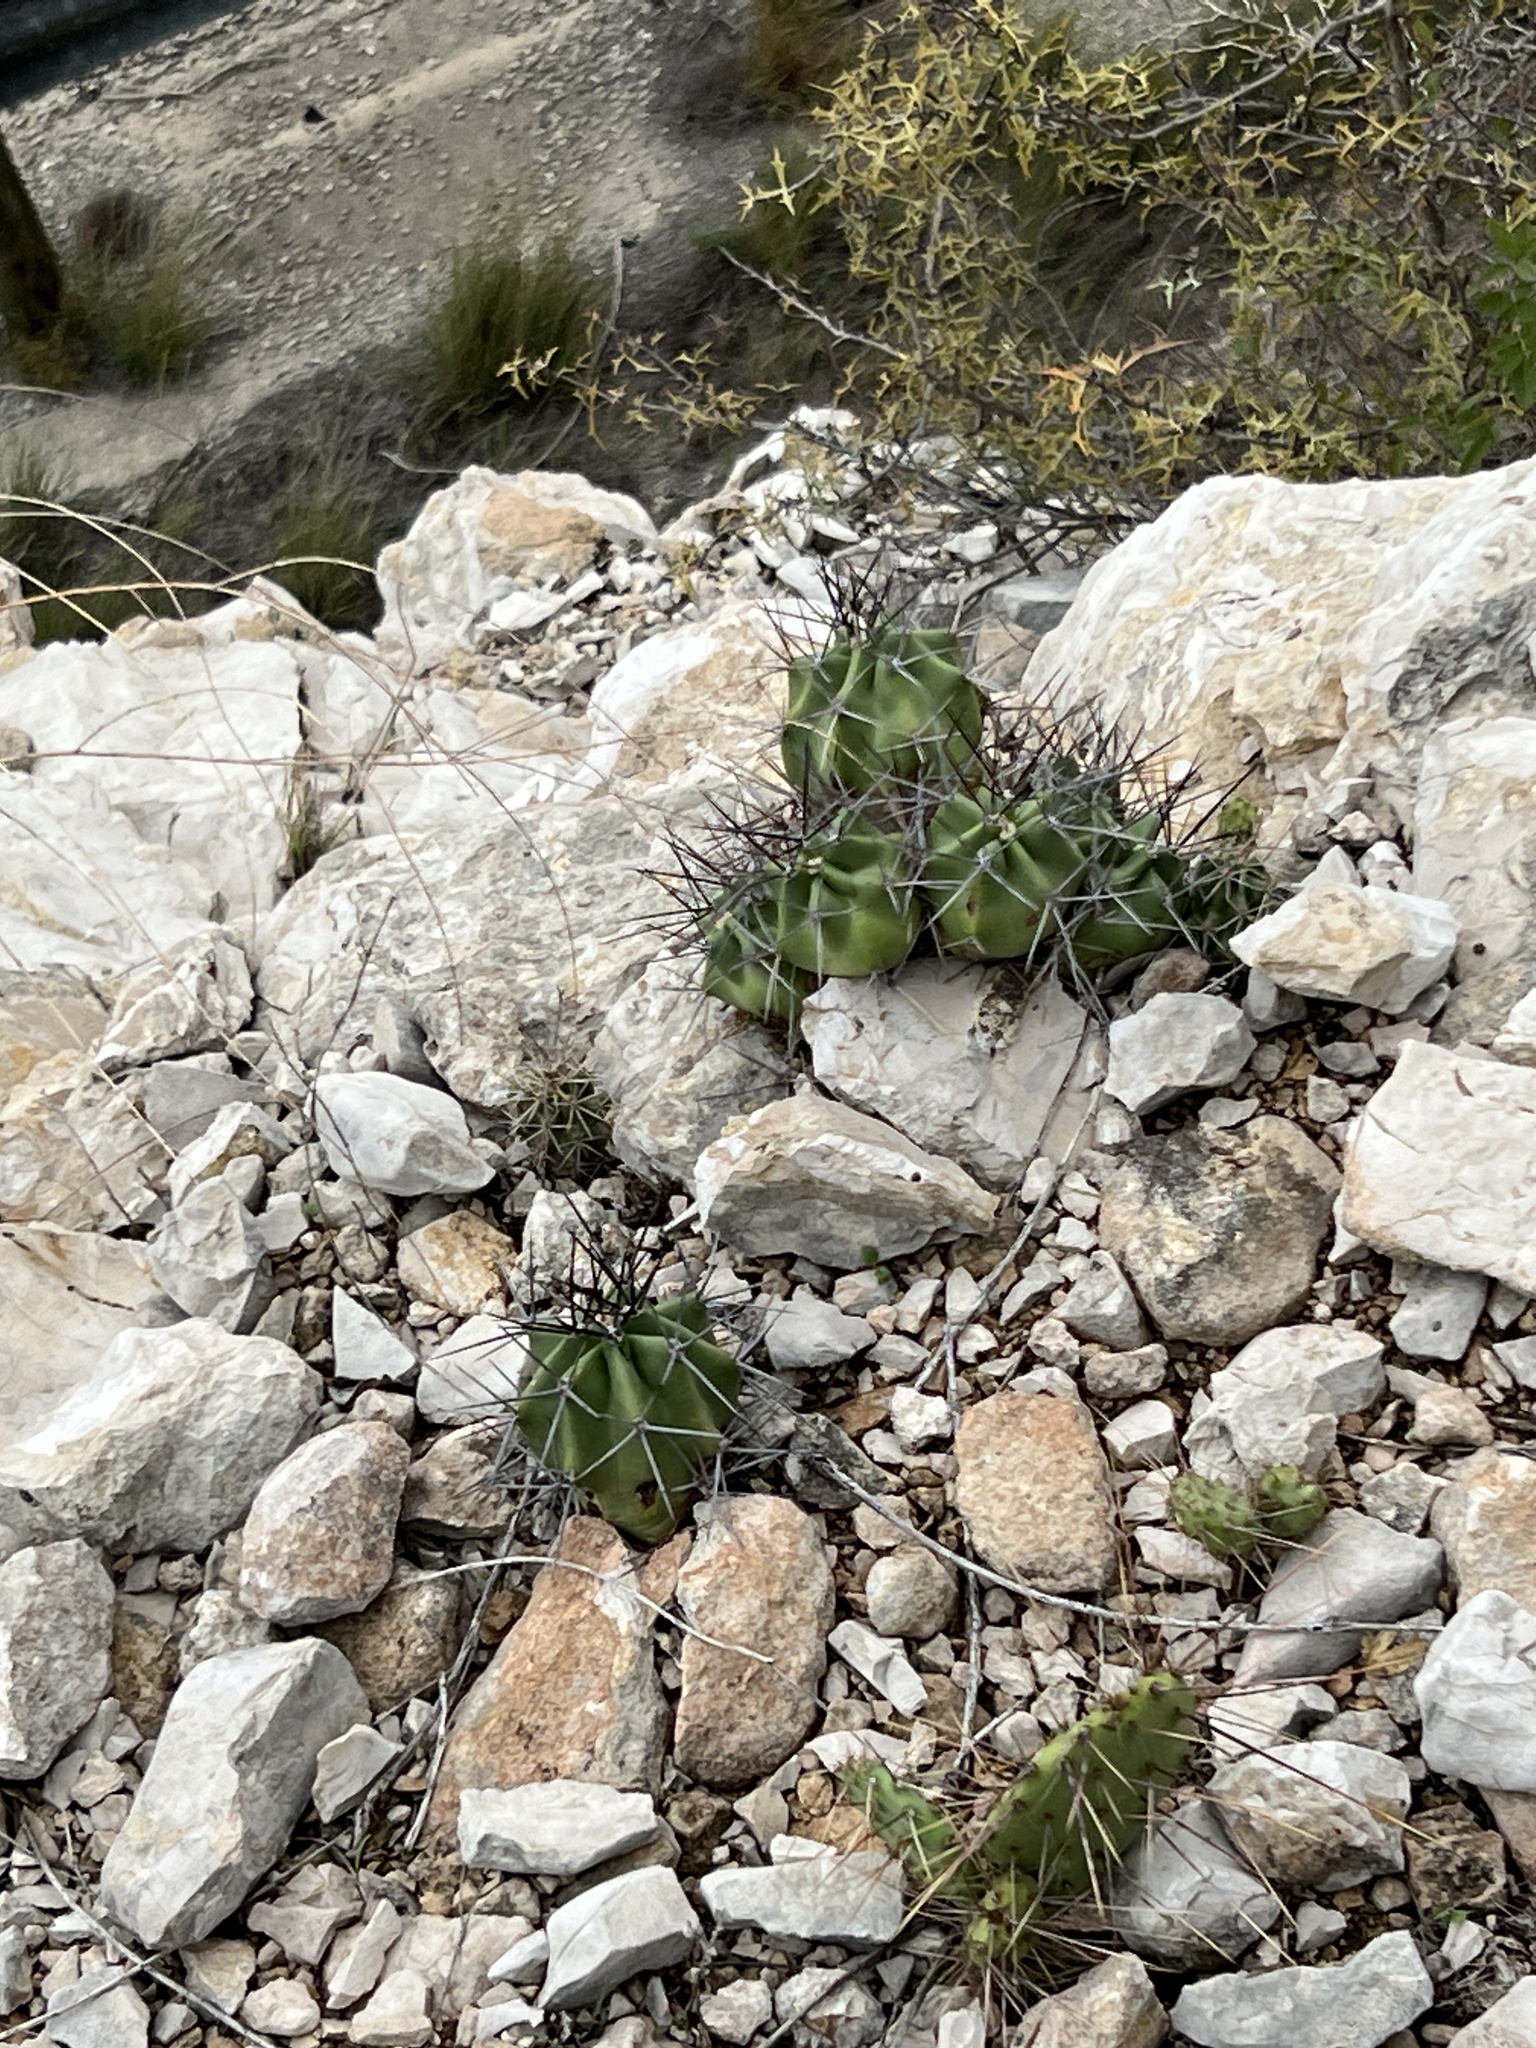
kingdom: Plantae
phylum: Tracheophyta
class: Magnoliopsida
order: Caryophyllales
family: Cactaceae
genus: Echinocereus
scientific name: Echinocereus coccineus
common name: Scarlet hedgehog cactus
